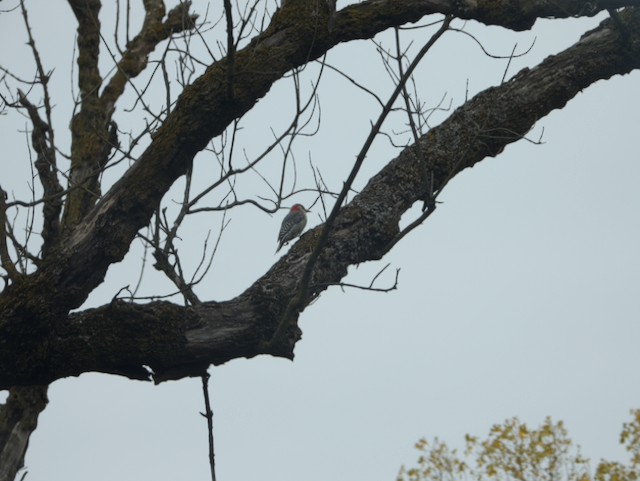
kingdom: Animalia
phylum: Chordata
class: Aves
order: Piciformes
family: Picidae
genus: Melanerpes
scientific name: Melanerpes carolinus
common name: Red-bellied woodpecker
